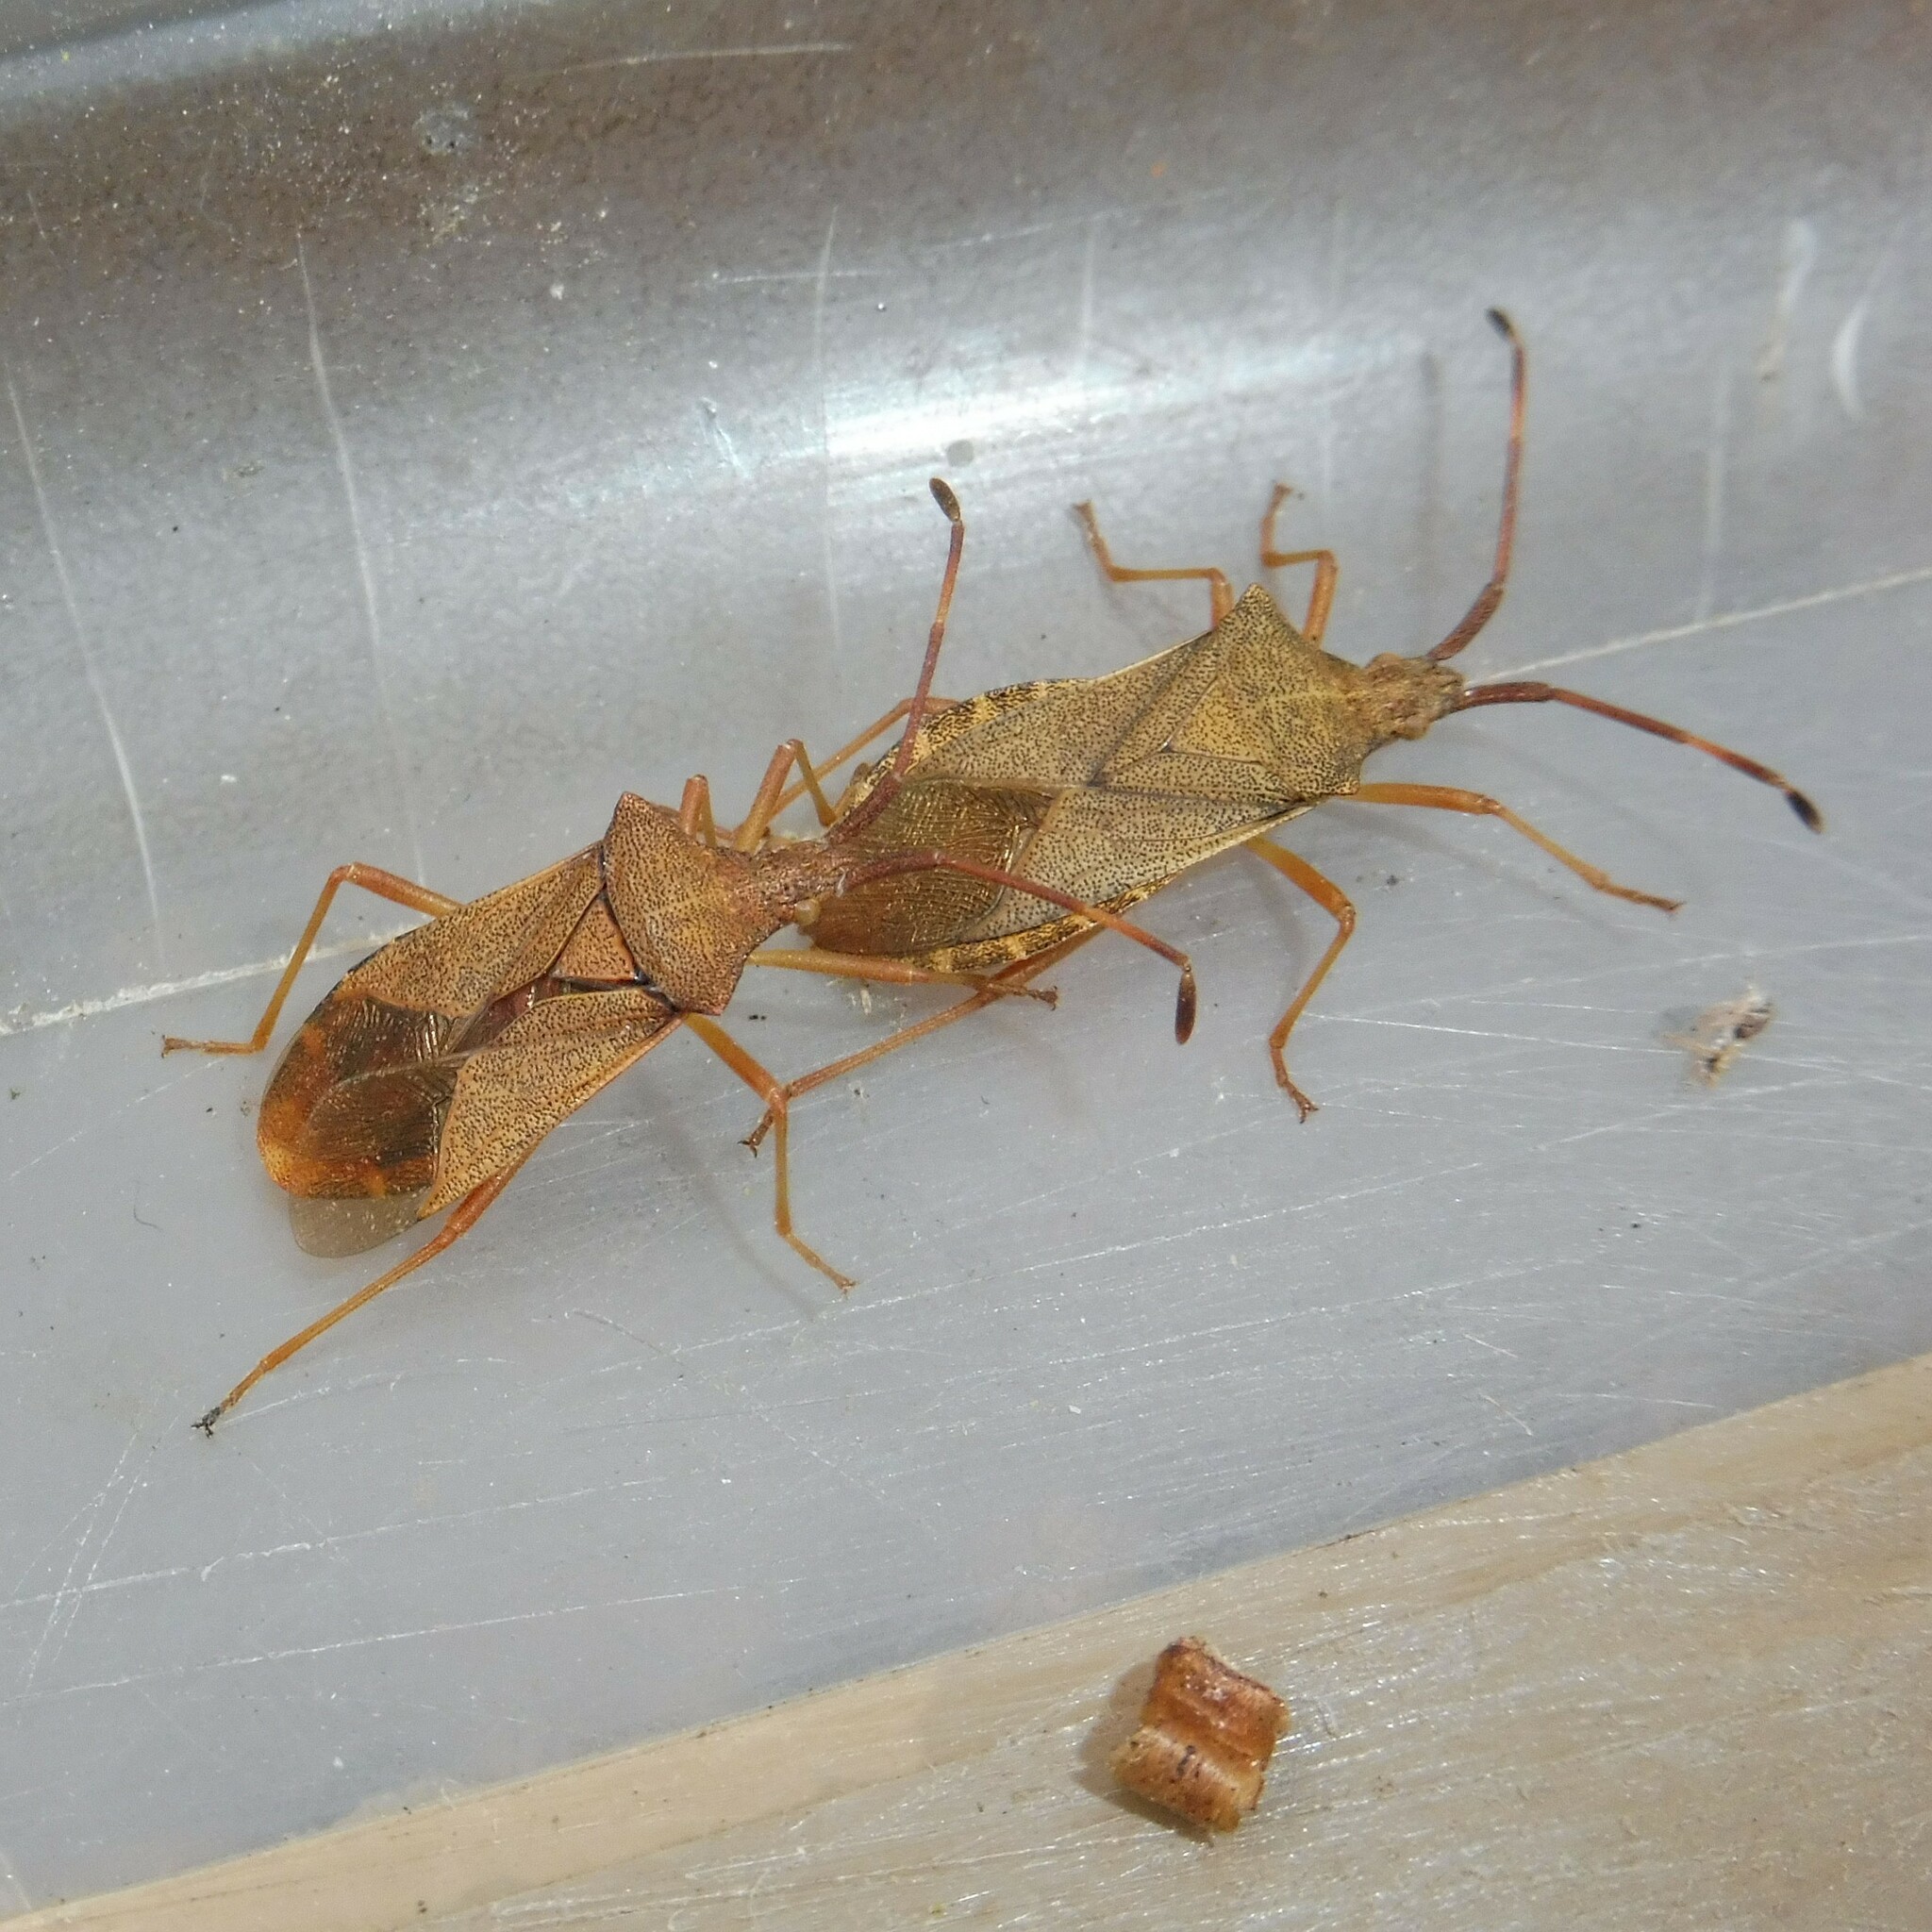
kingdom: Animalia
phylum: Arthropoda
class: Insecta
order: Hemiptera
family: Coreidae
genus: Gonocerus
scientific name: Gonocerus acuteangulatus
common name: Box bug
